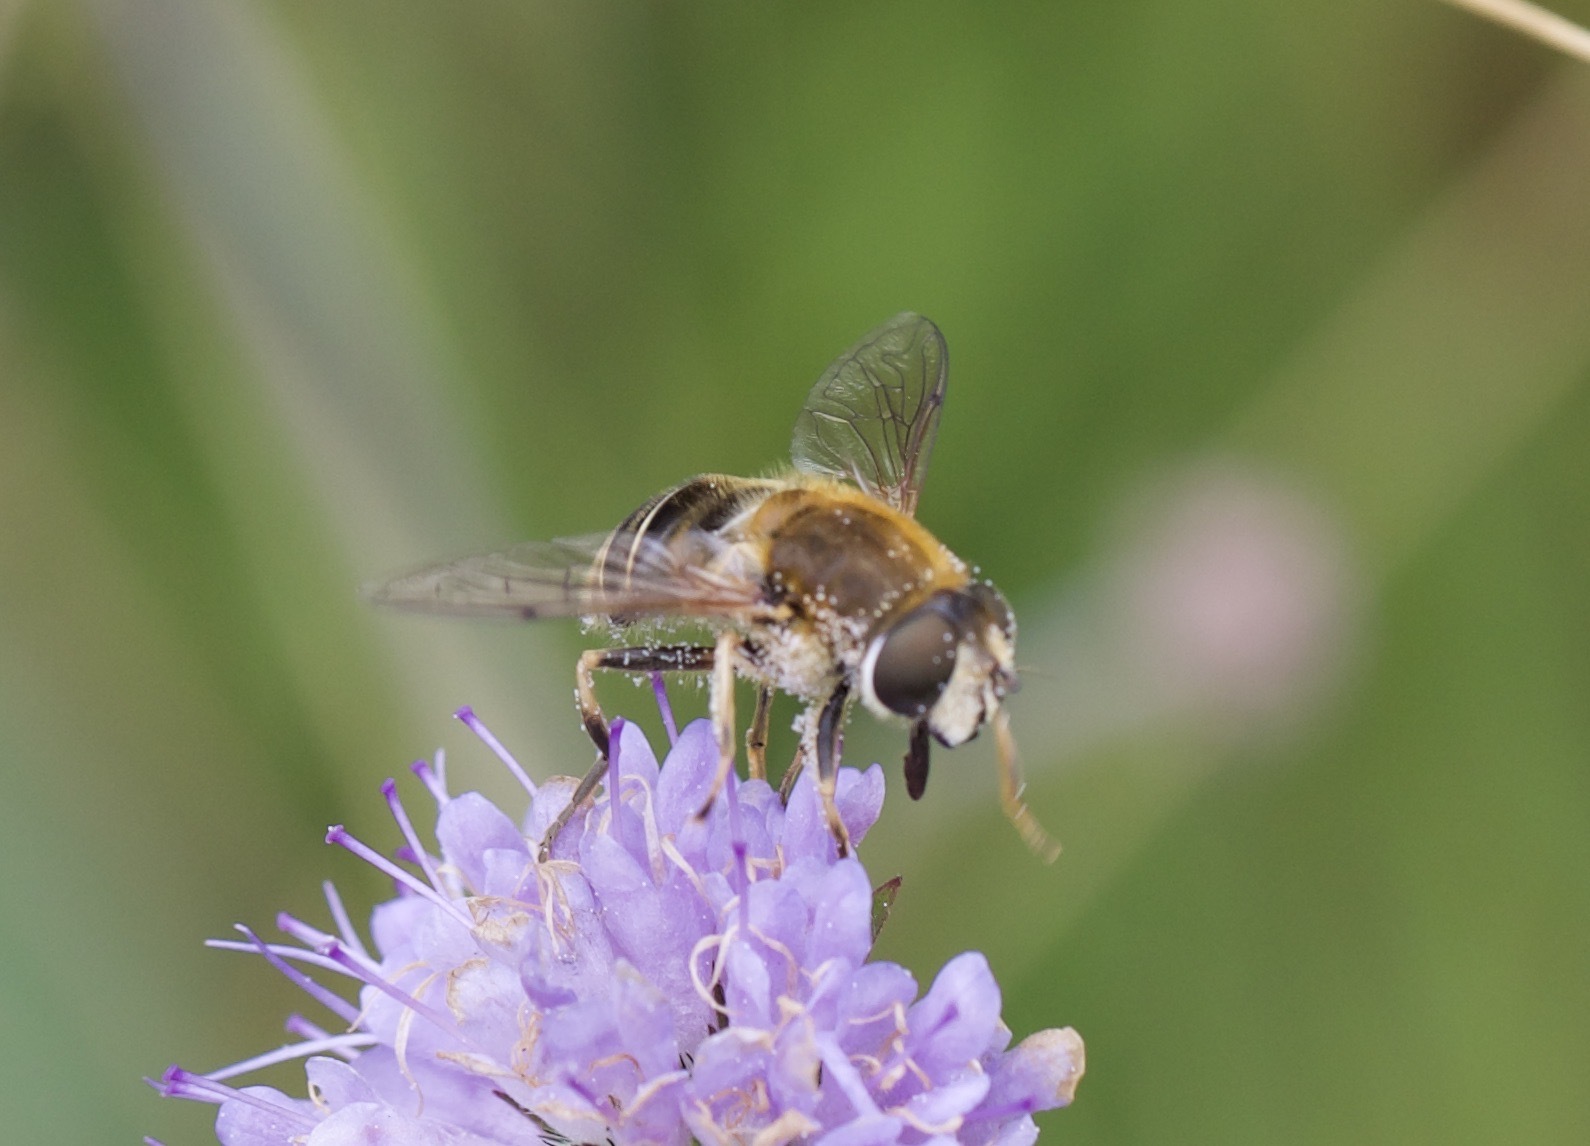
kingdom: Animalia
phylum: Arthropoda
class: Insecta
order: Diptera
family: Syrphidae
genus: Eristalis
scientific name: Eristalis nemorum
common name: Orange-spined drone fly
